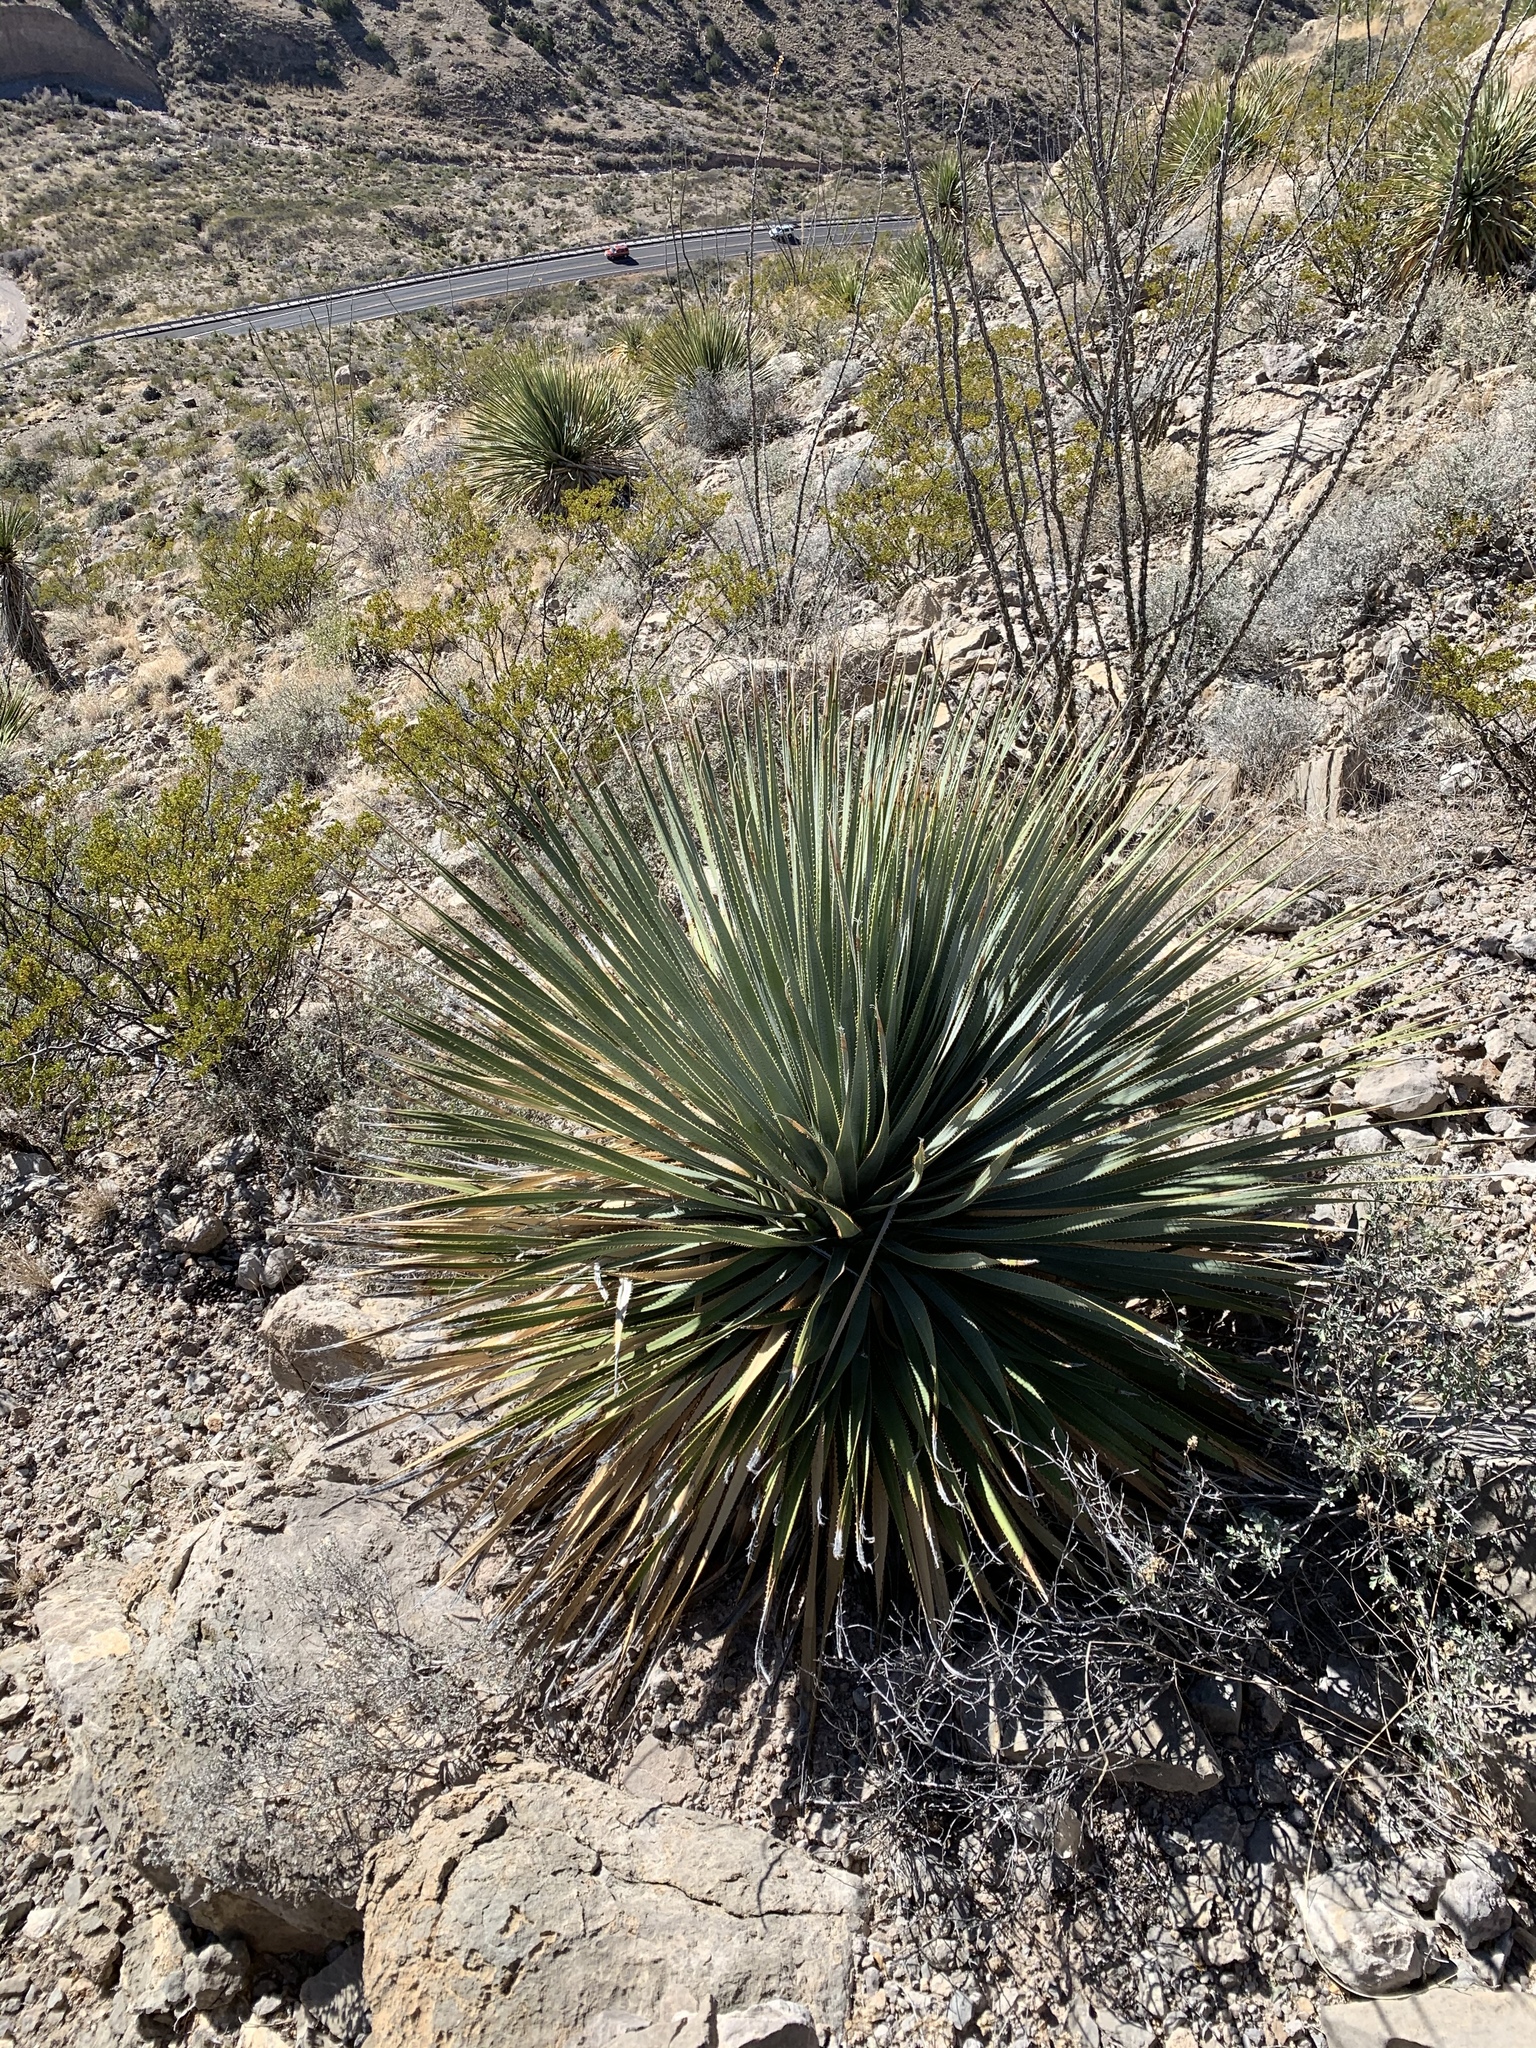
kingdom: Plantae
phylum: Tracheophyta
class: Liliopsida
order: Asparagales
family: Asparagaceae
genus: Dasylirion
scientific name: Dasylirion wheeleri
